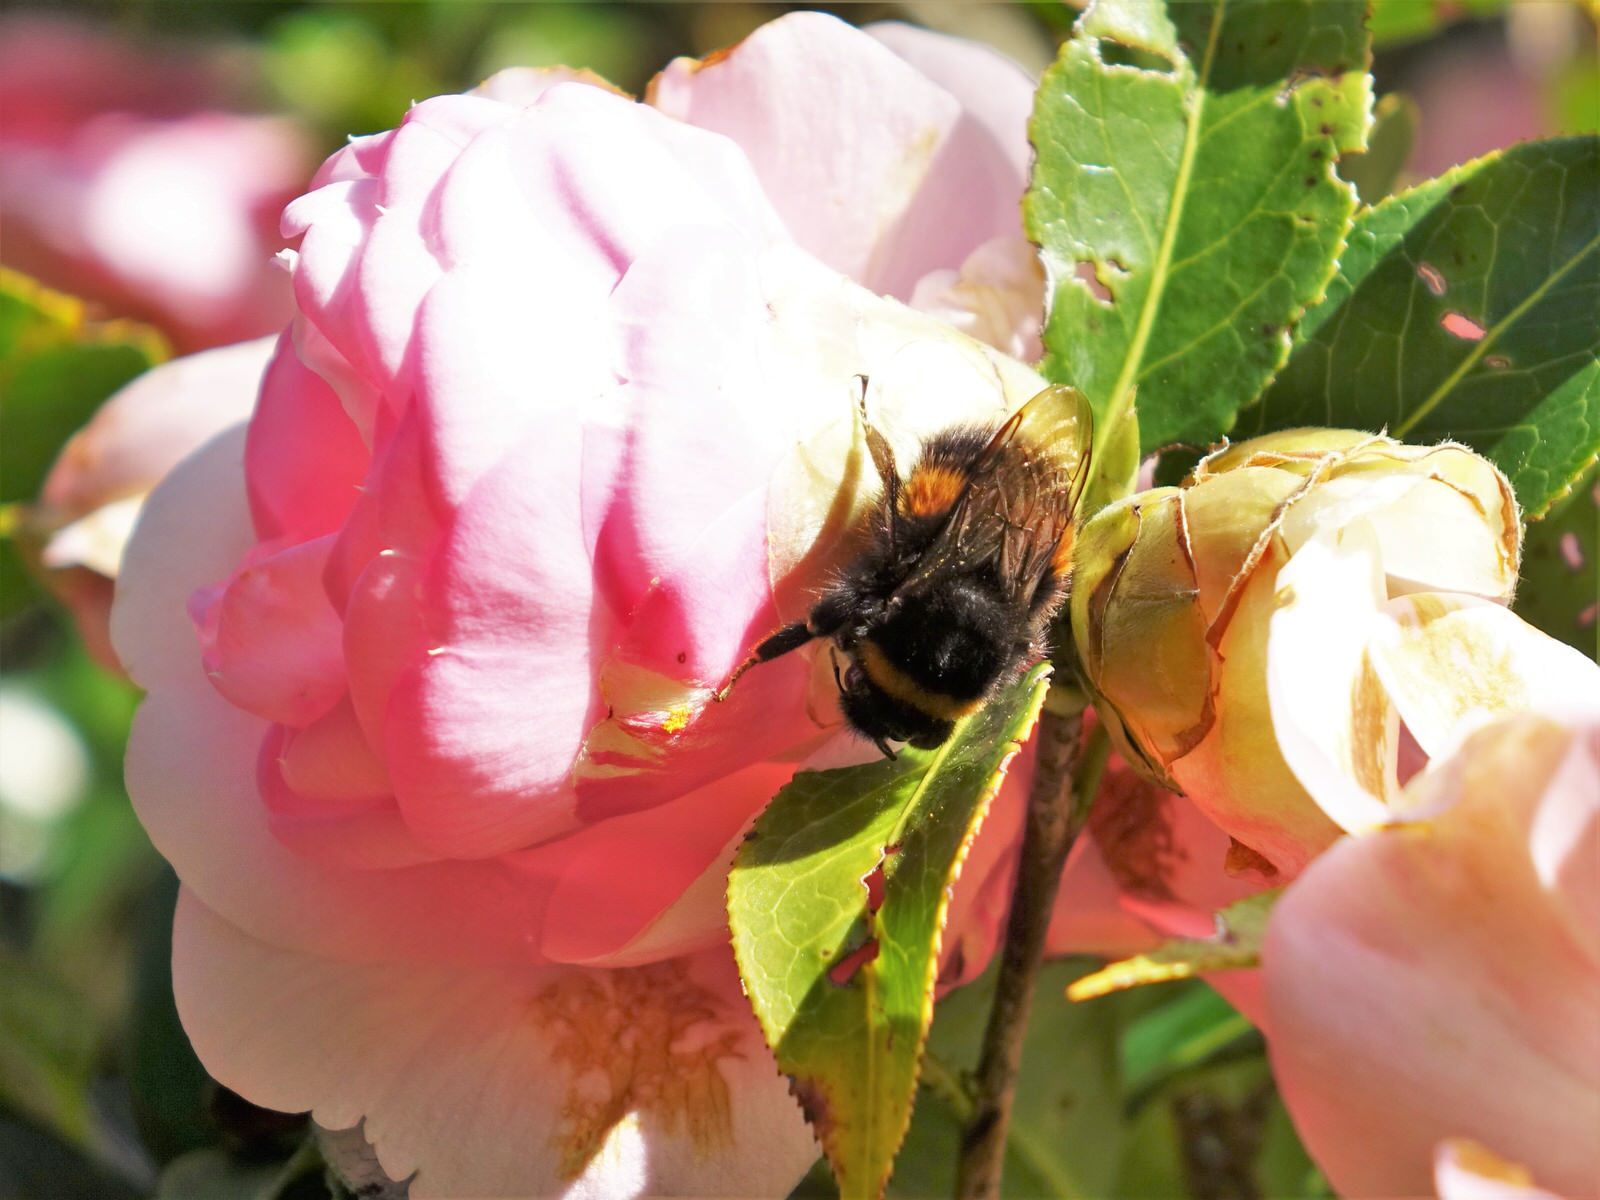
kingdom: Animalia
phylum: Arthropoda
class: Insecta
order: Hymenoptera
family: Apidae
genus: Bombus
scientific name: Bombus terrestris
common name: Buff-tailed bumblebee
